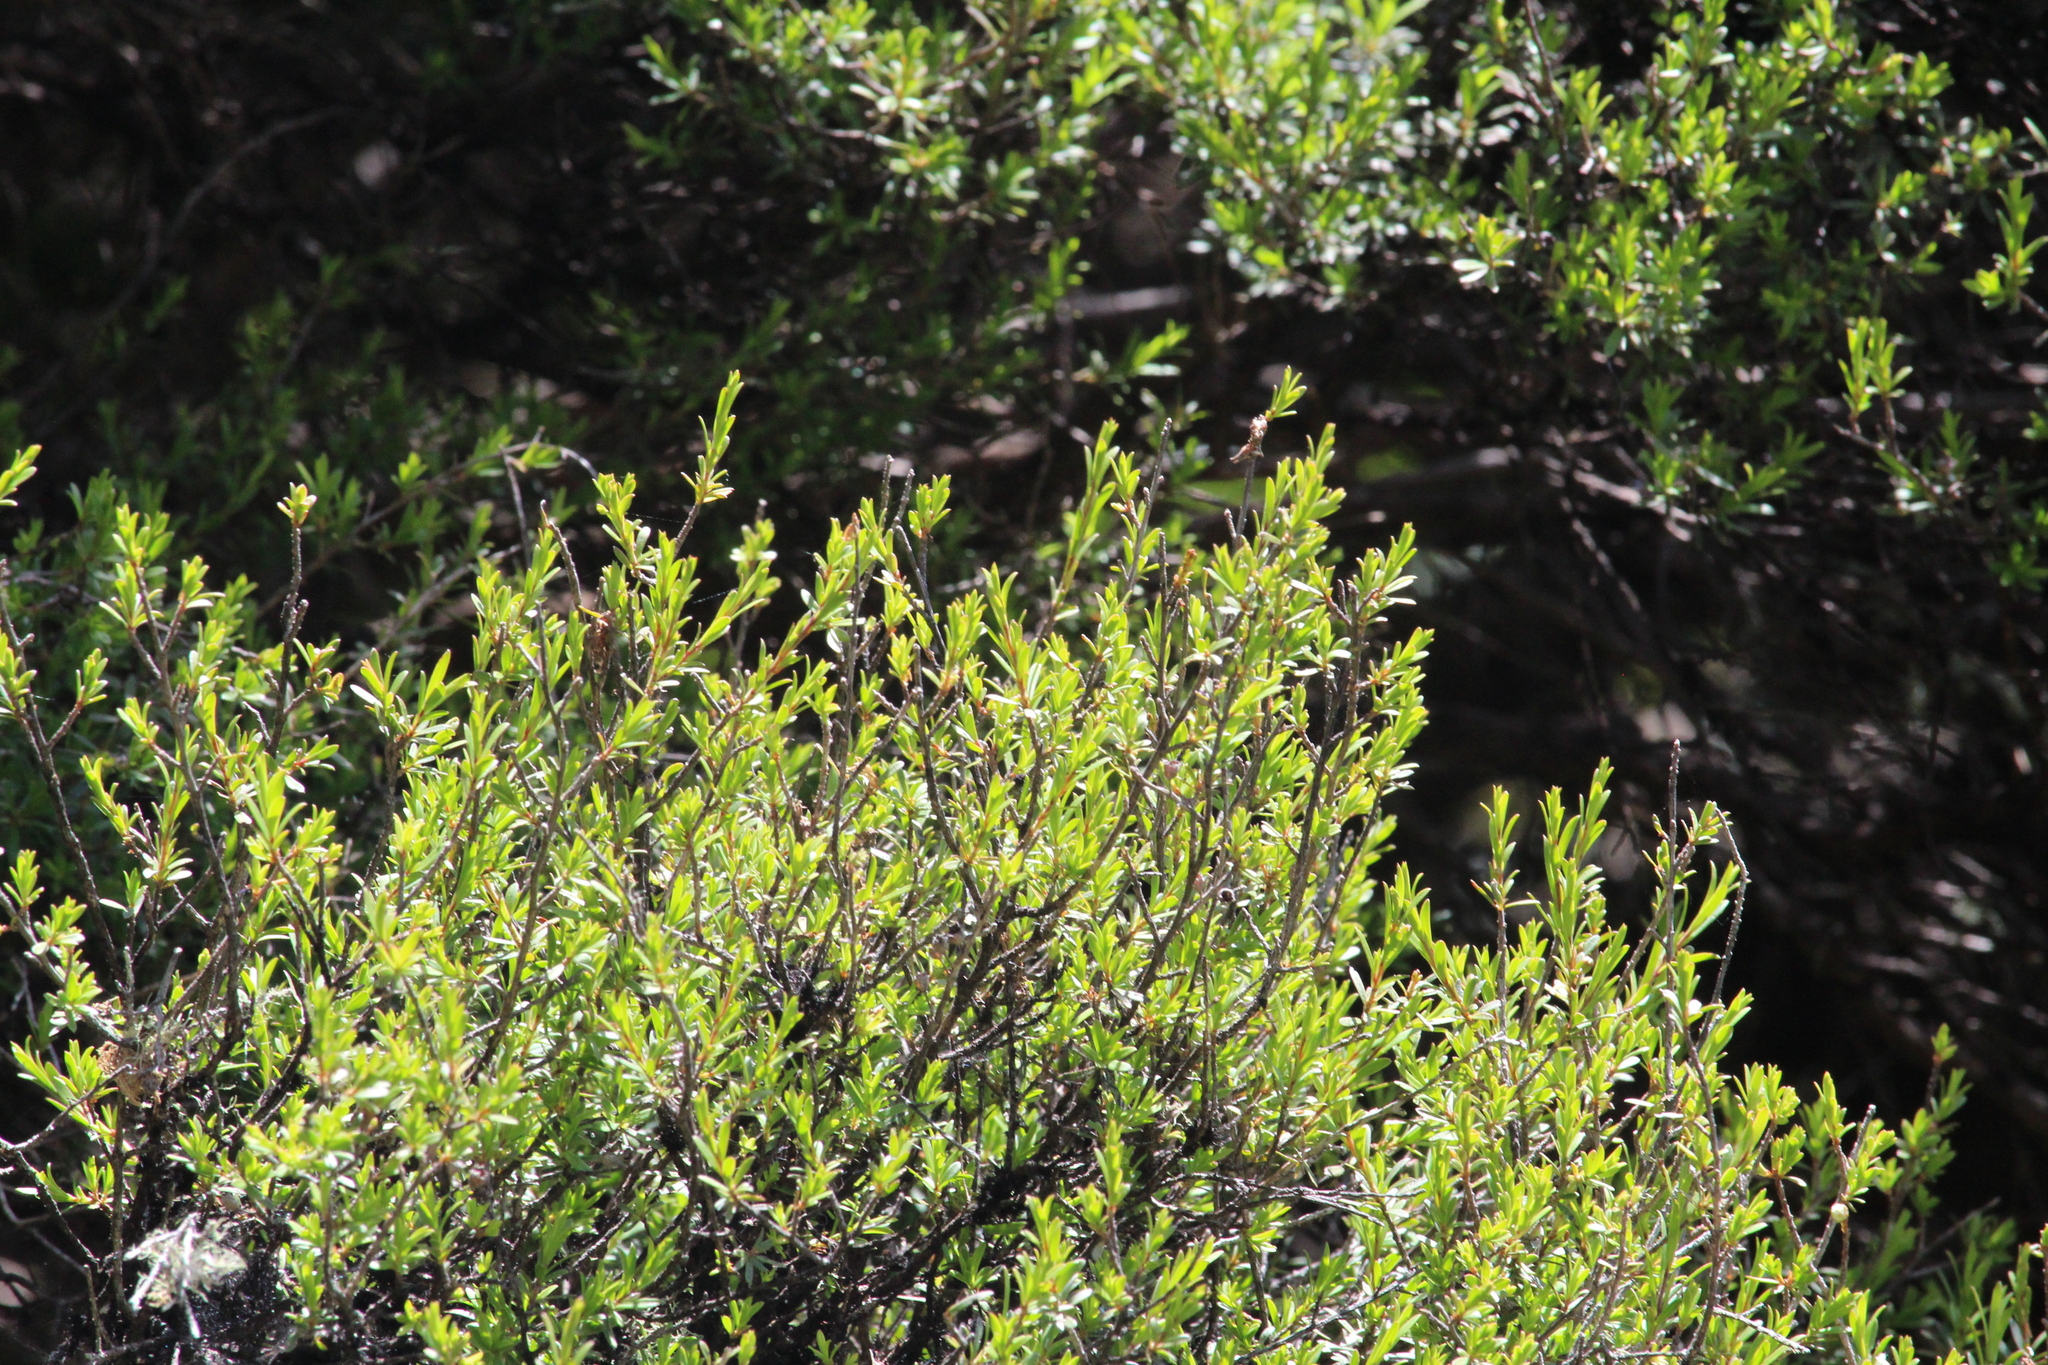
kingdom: Plantae
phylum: Tracheophyta
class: Magnoliopsida
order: Myrtales
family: Myrtaceae
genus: Kunzea
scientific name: Kunzea robusta
